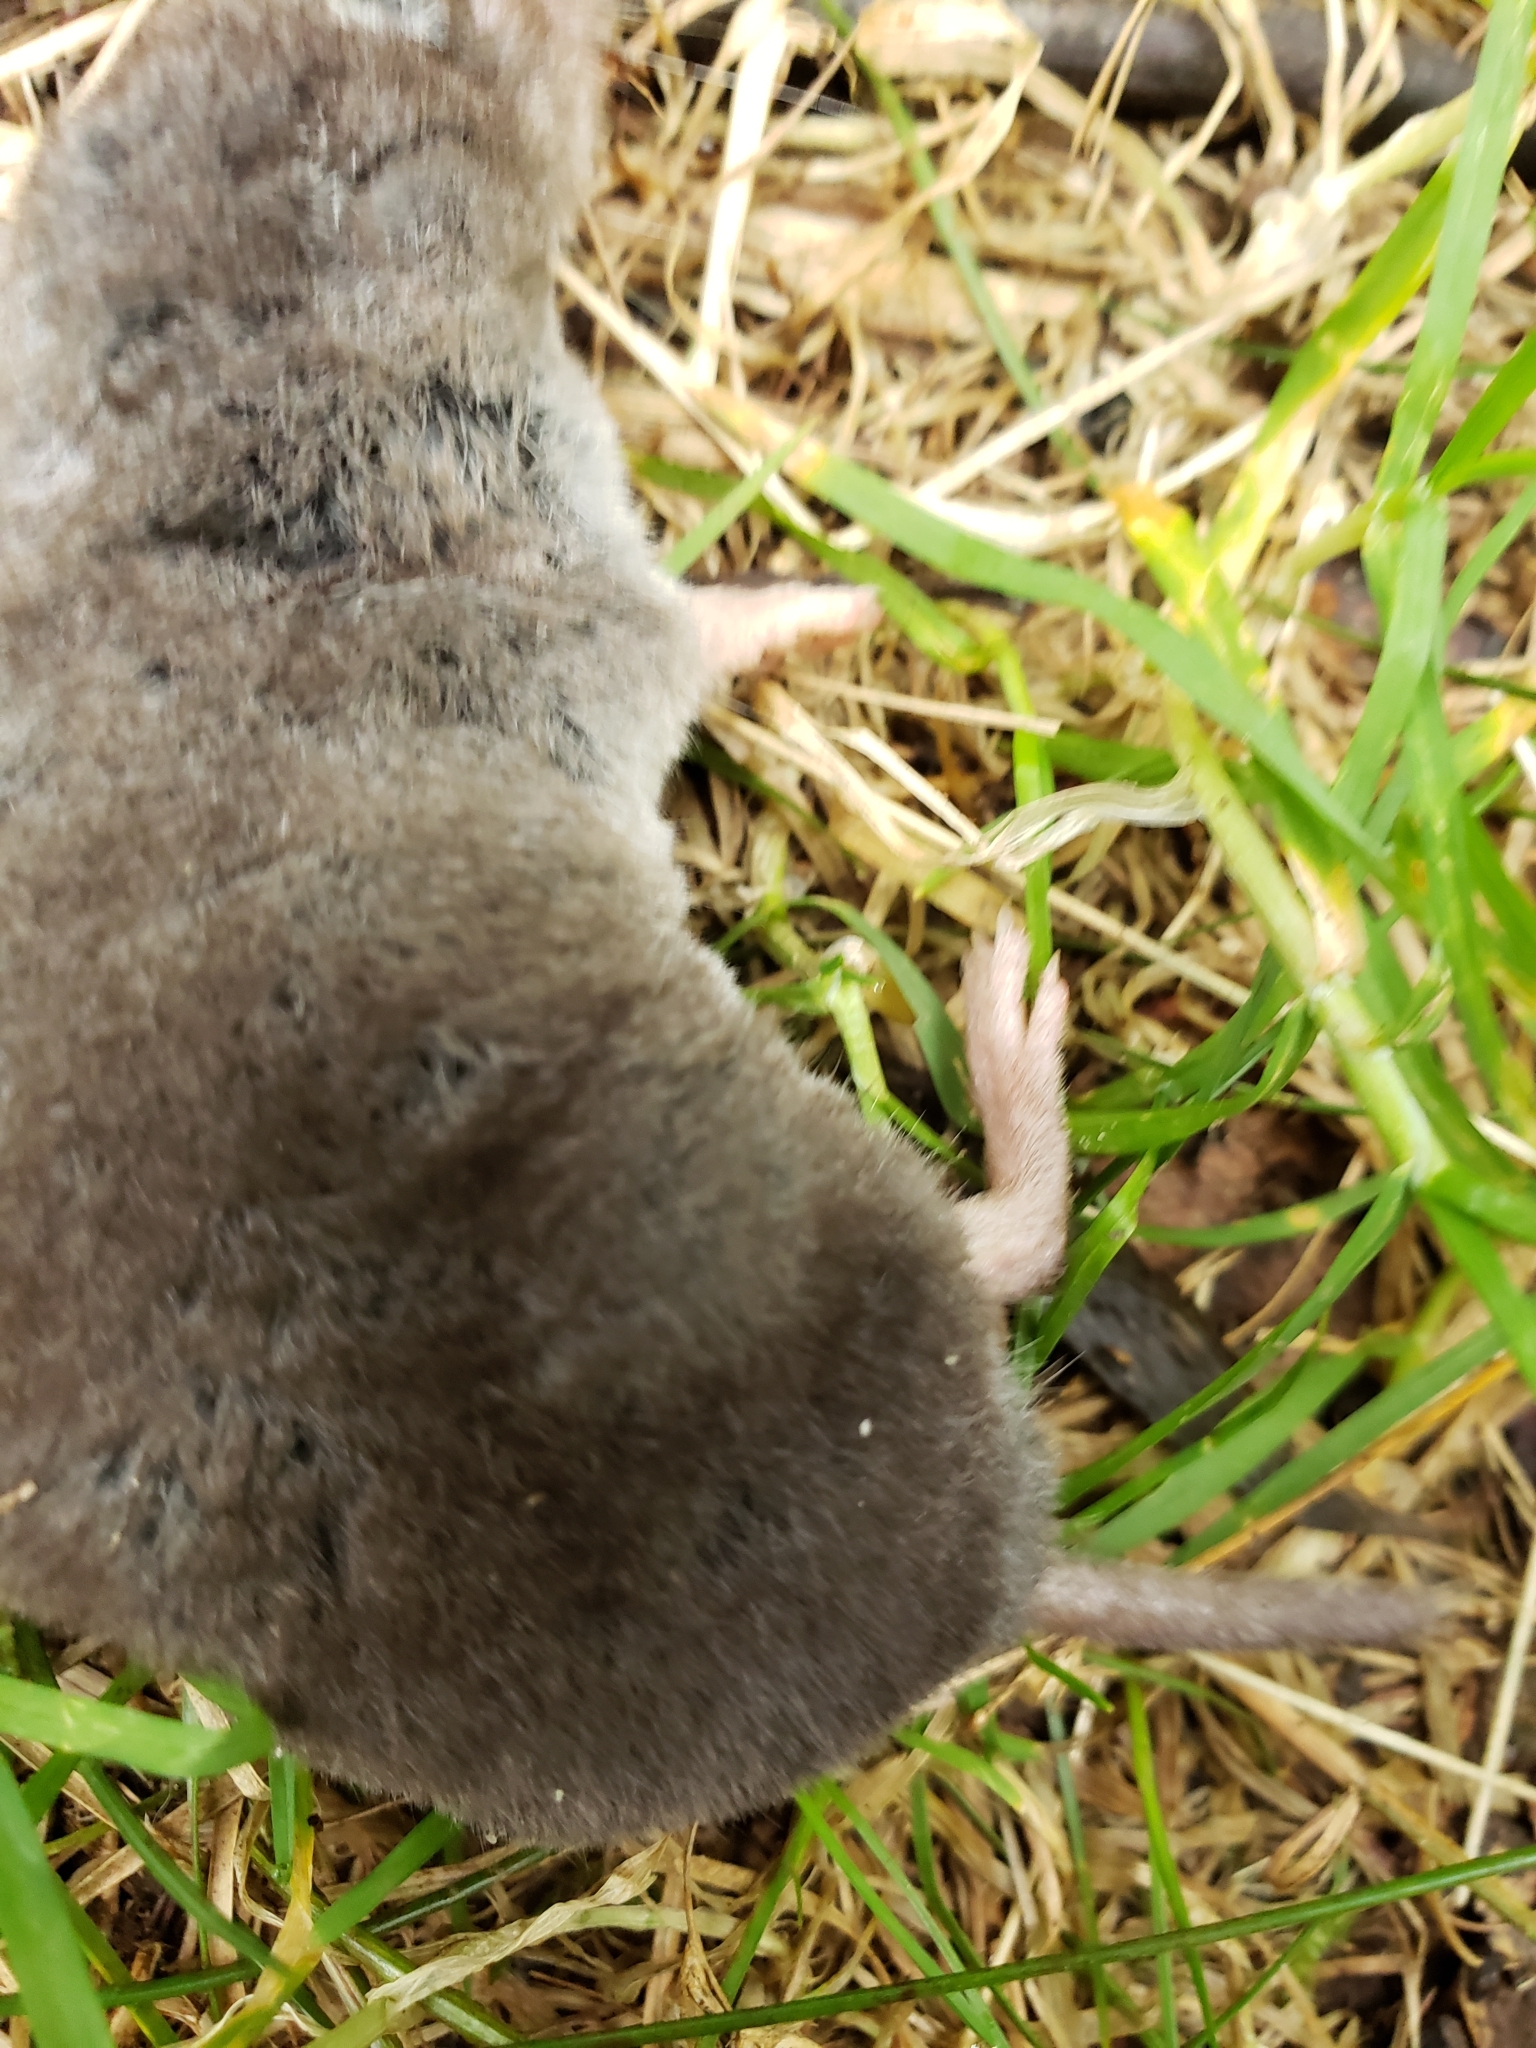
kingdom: Animalia
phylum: Chordata
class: Mammalia
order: Soricomorpha
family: Soricidae
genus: Blarina
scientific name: Blarina brevicauda
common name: Northern short-tailed shrew
